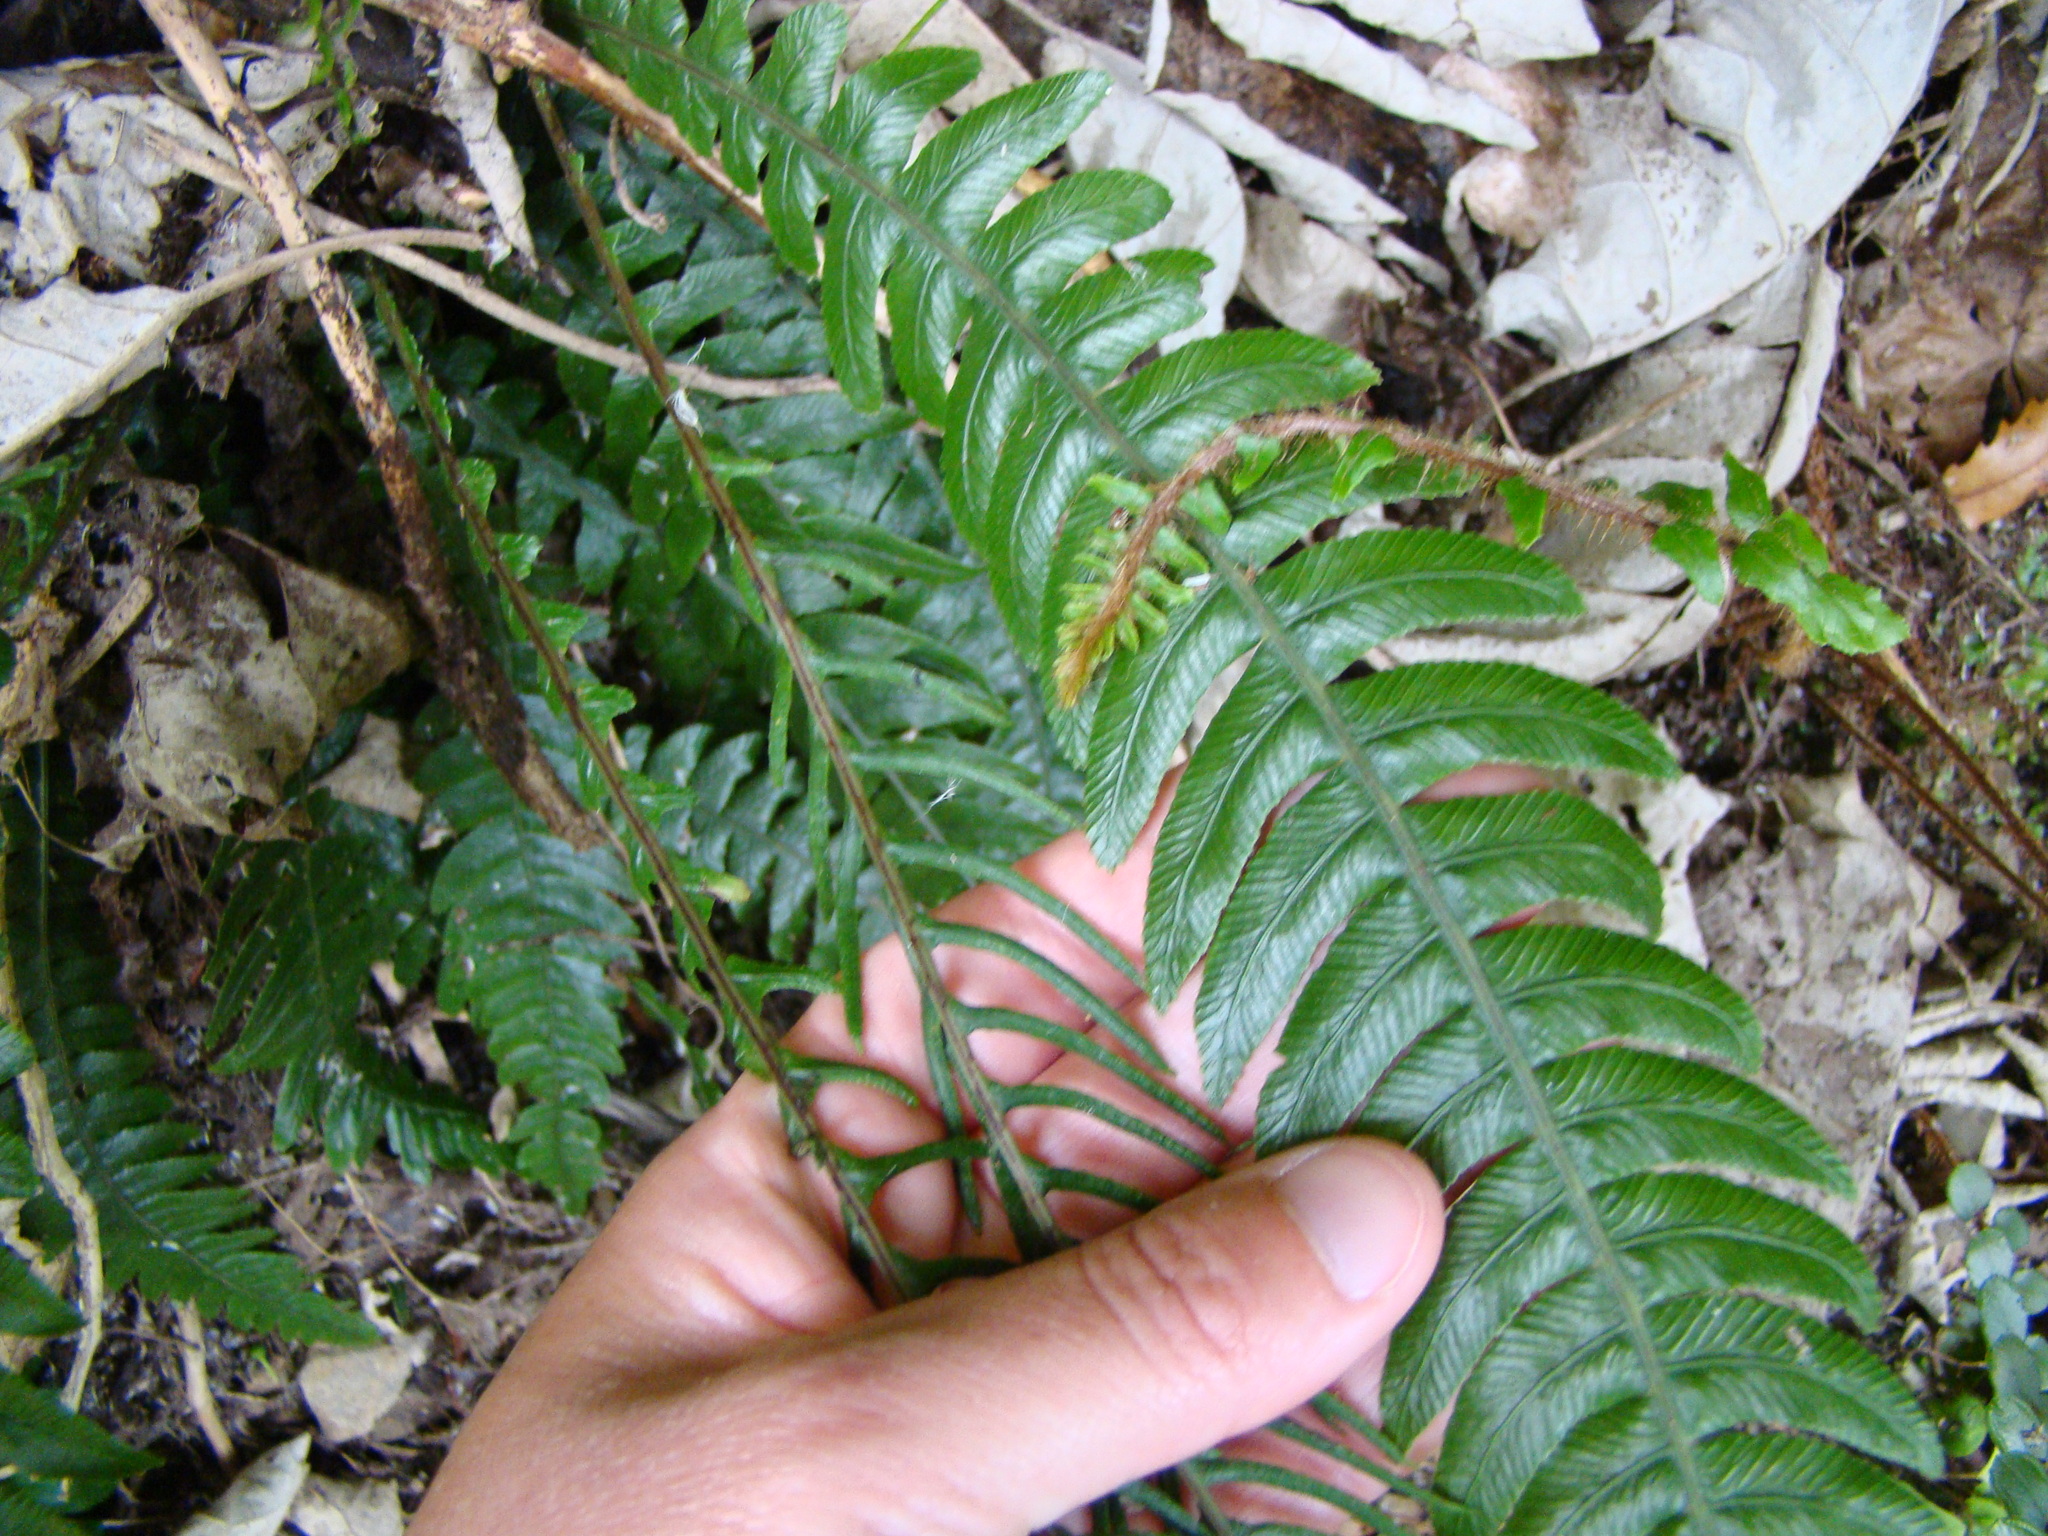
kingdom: Plantae
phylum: Tracheophyta
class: Polypodiopsida
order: Polypodiales
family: Blechnaceae
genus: Austroblechnum
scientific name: Austroblechnum lanceolatum
